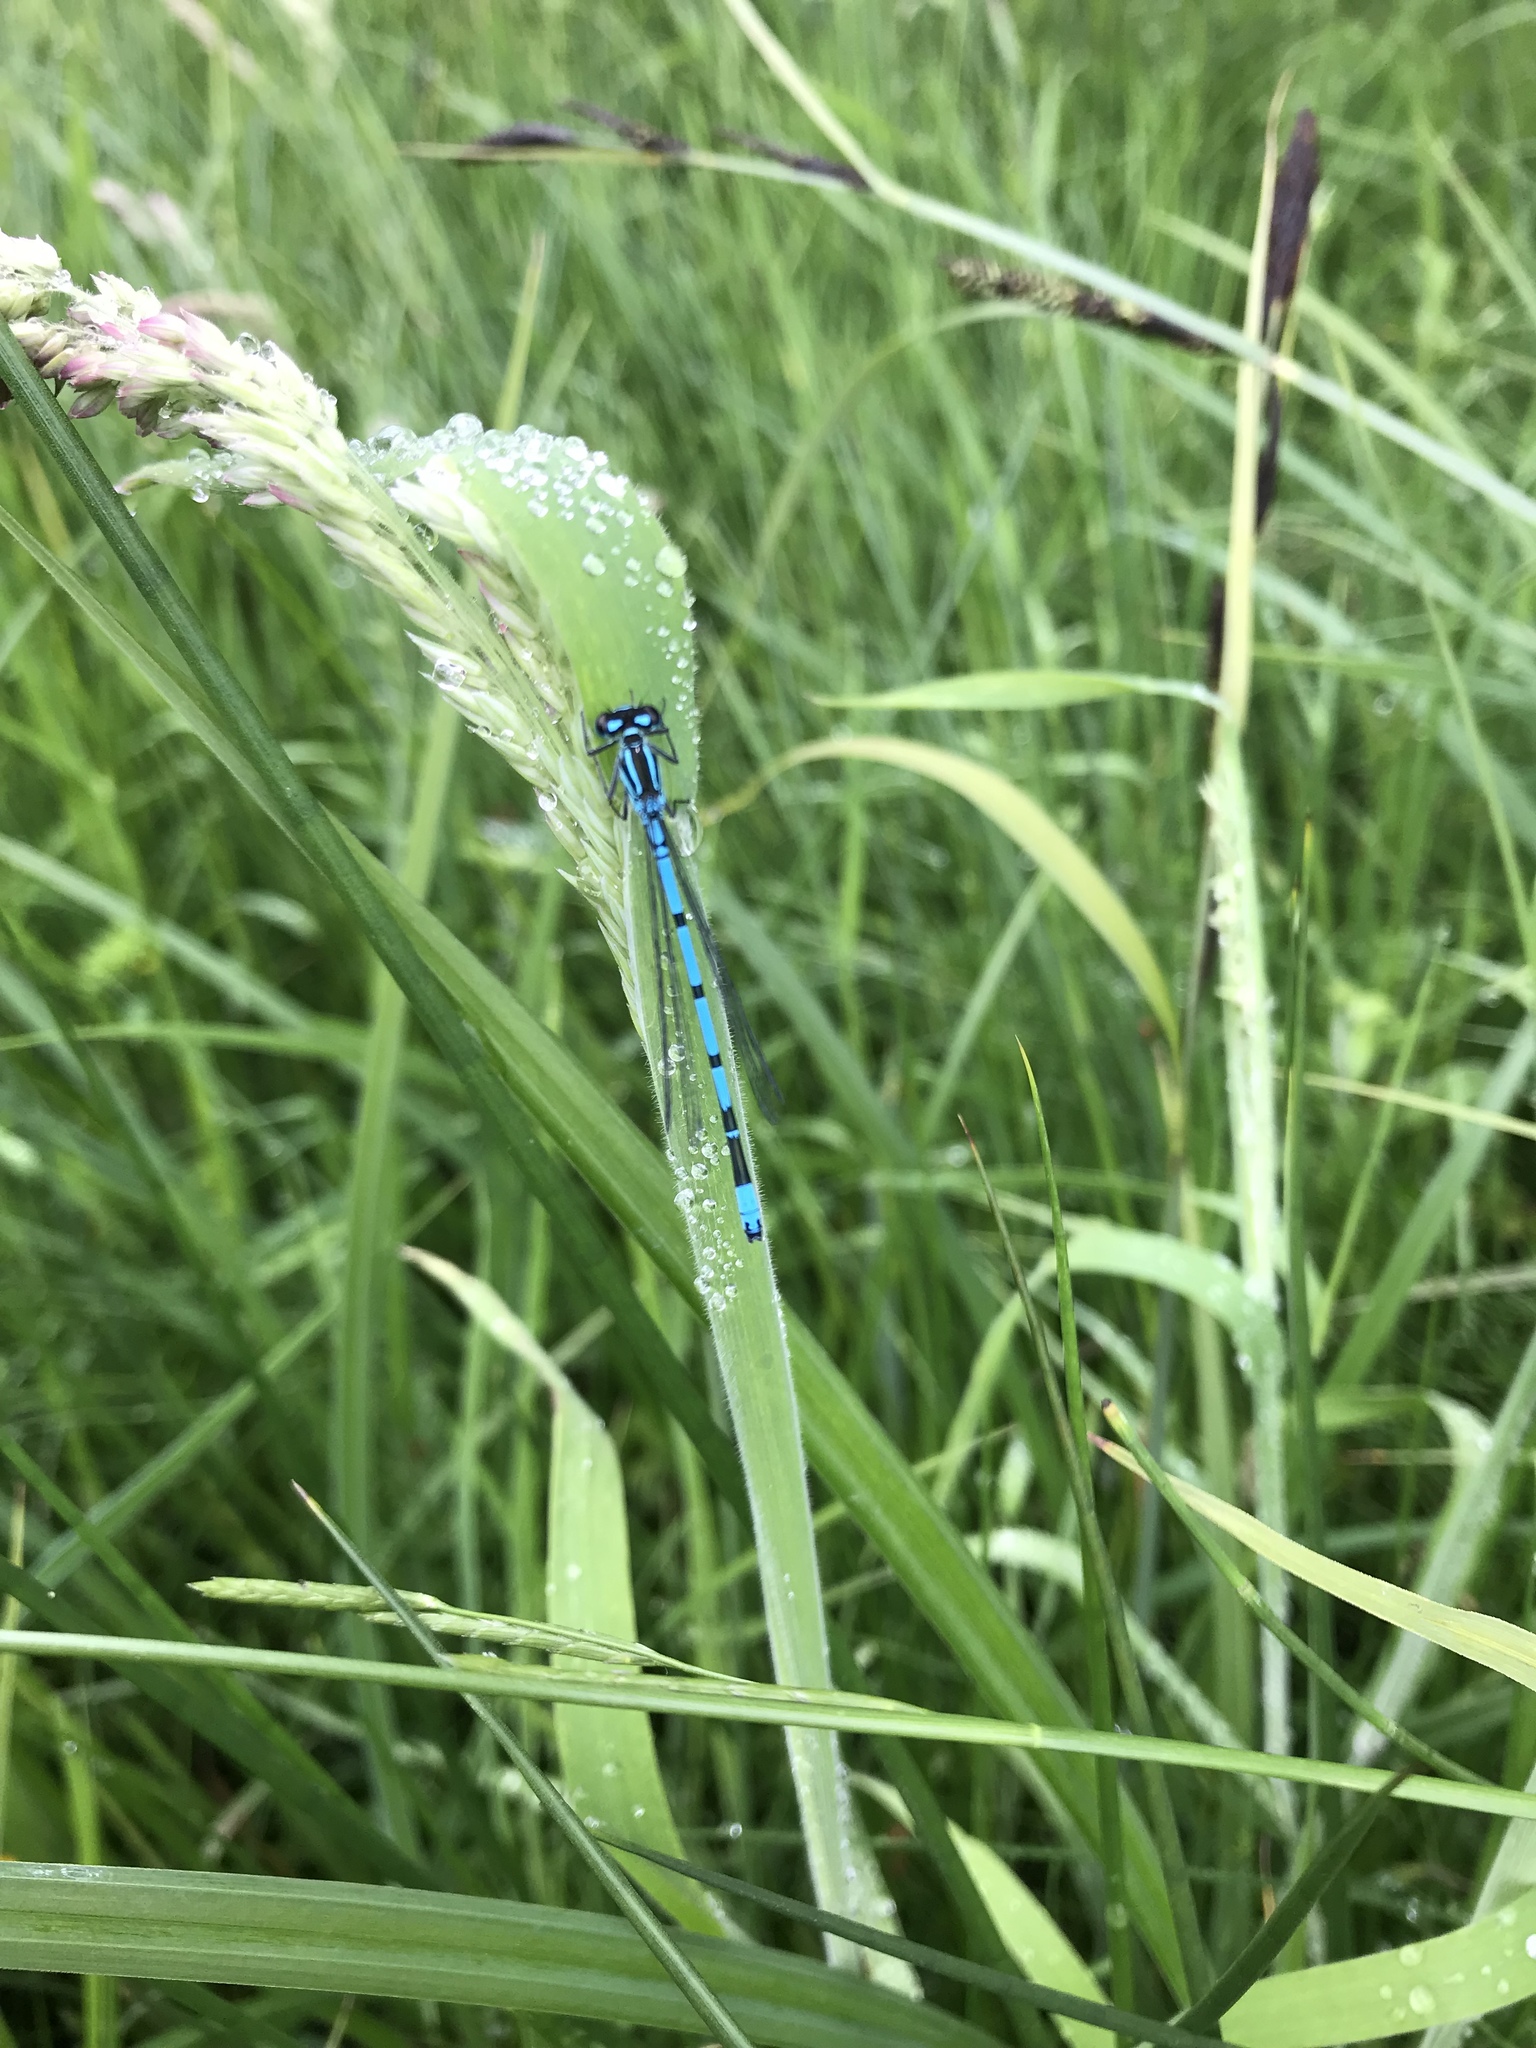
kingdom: Animalia
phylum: Arthropoda
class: Insecta
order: Odonata
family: Coenagrionidae
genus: Coenagrion
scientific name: Coenagrion puella
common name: Azure damselfly
